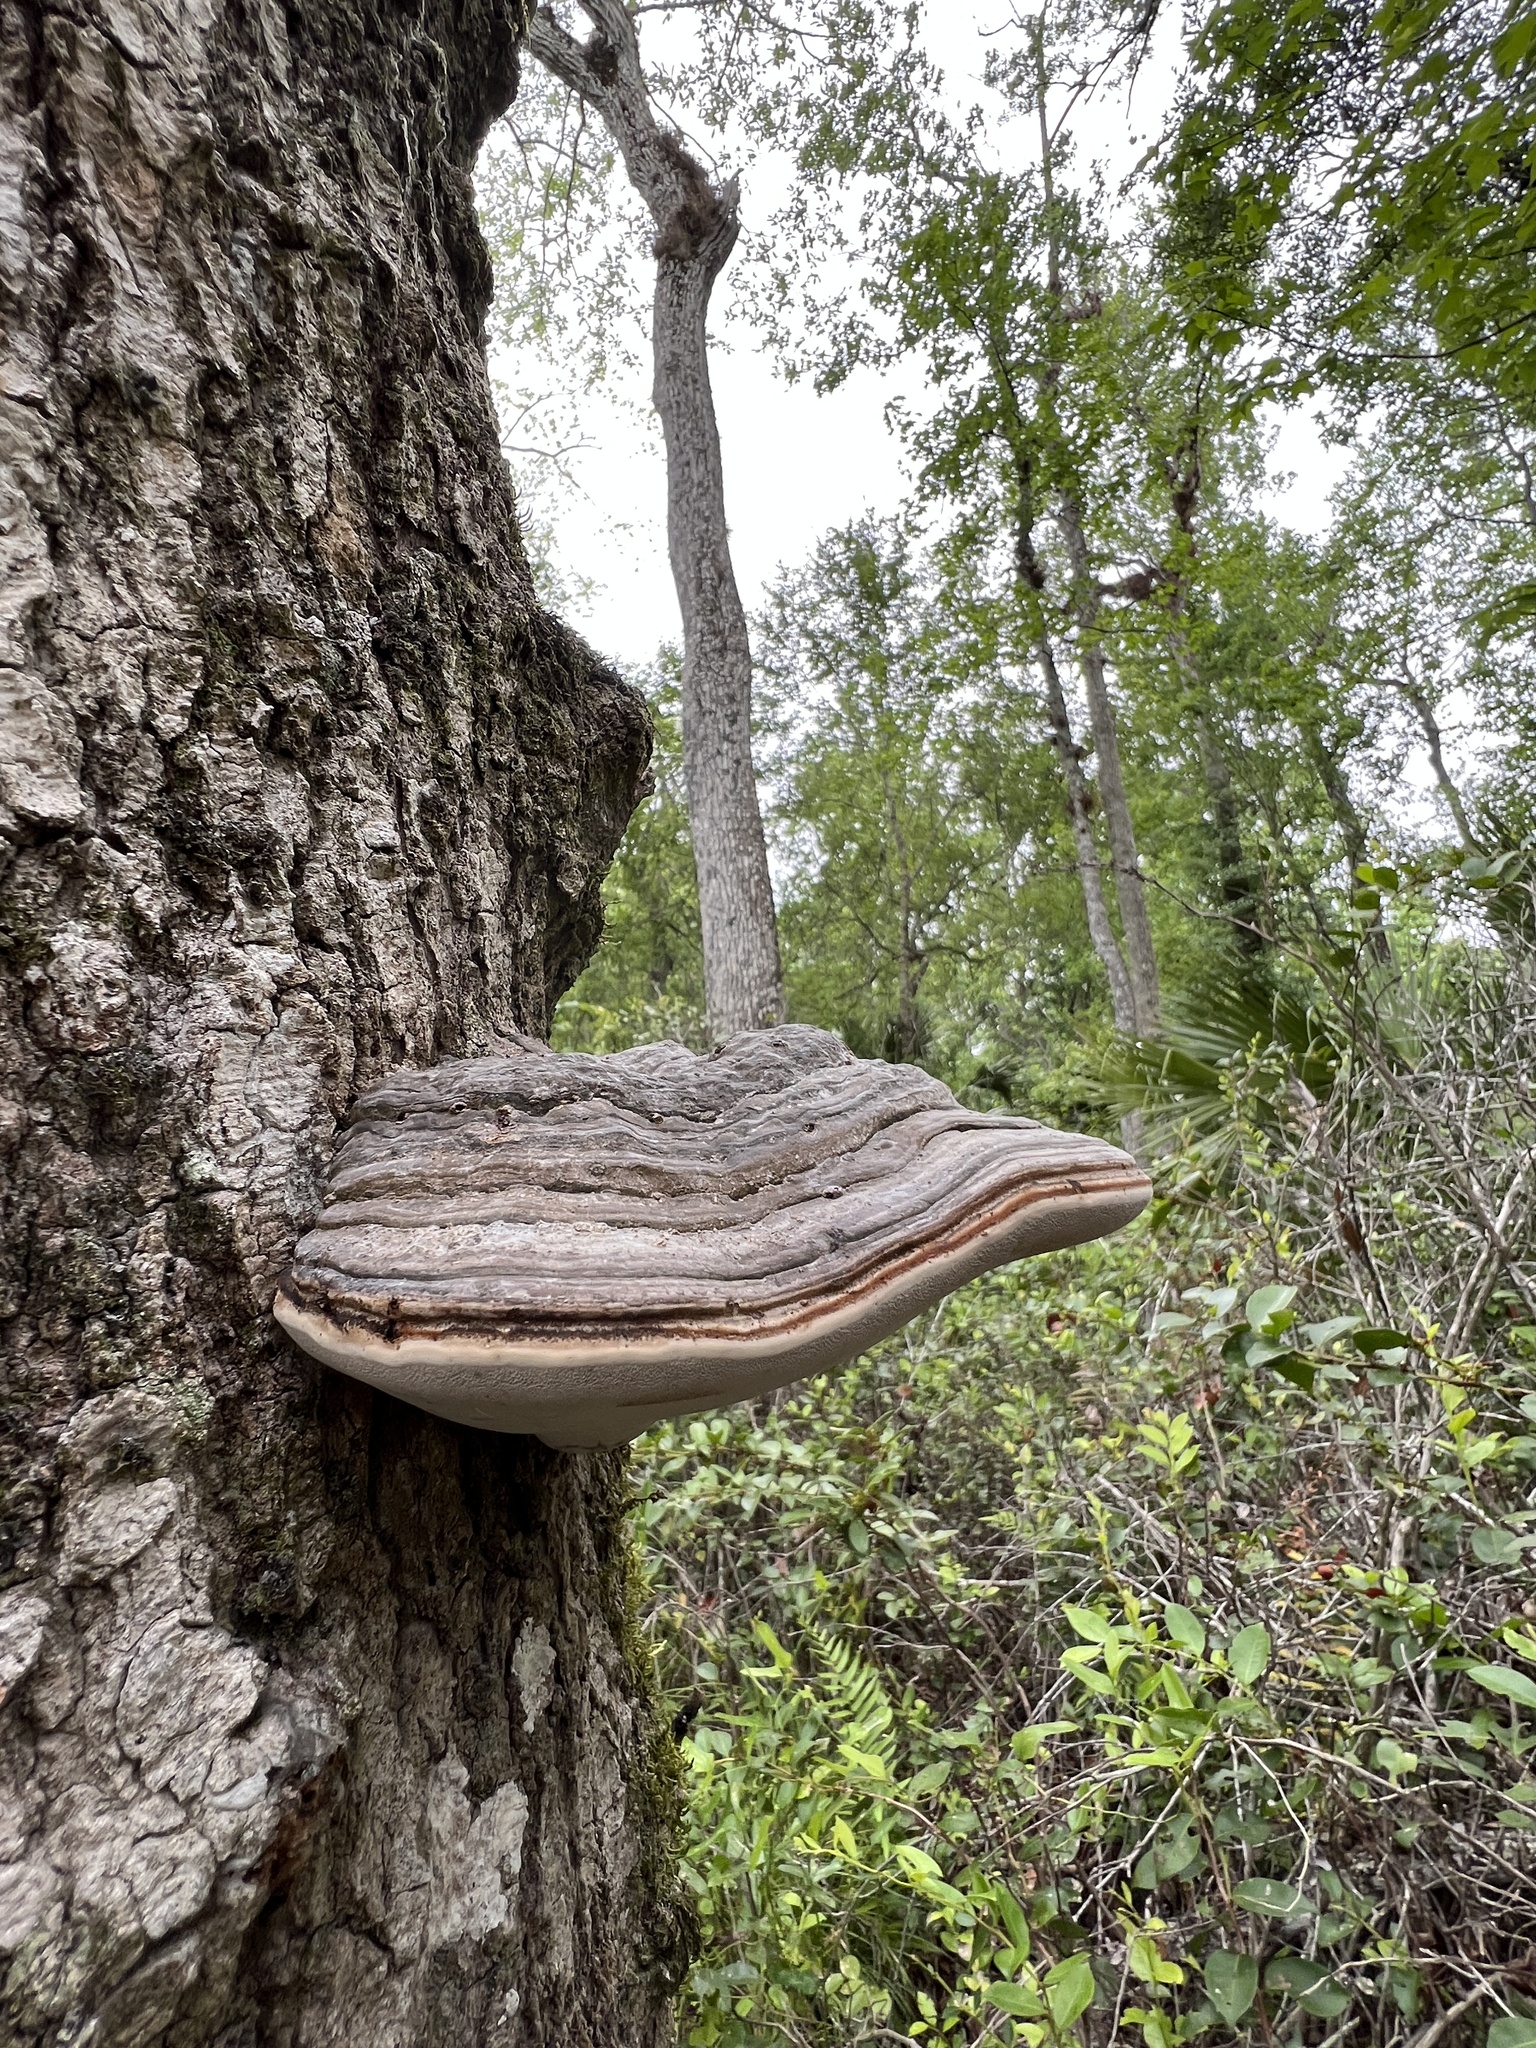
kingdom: Fungi
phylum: Basidiomycota
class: Agaricomycetes
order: Polyporales
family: Polyporaceae
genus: Fomes
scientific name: Fomes fasciatus
